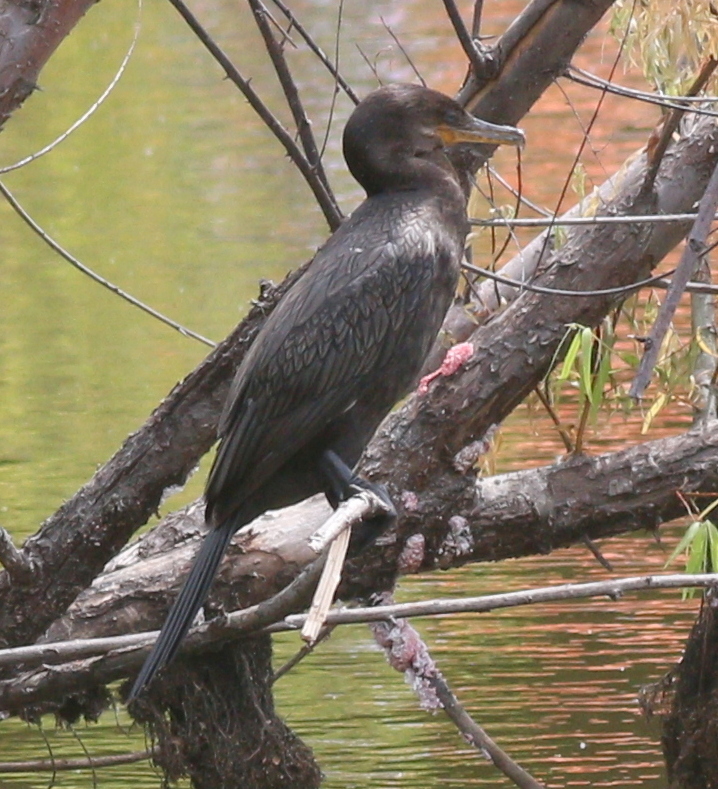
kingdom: Animalia
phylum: Chordata
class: Aves
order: Suliformes
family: Phalacrocoracidae
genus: Phalacrocorax
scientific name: Phalacrocorax brasilianus
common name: Neotropic cormorant
